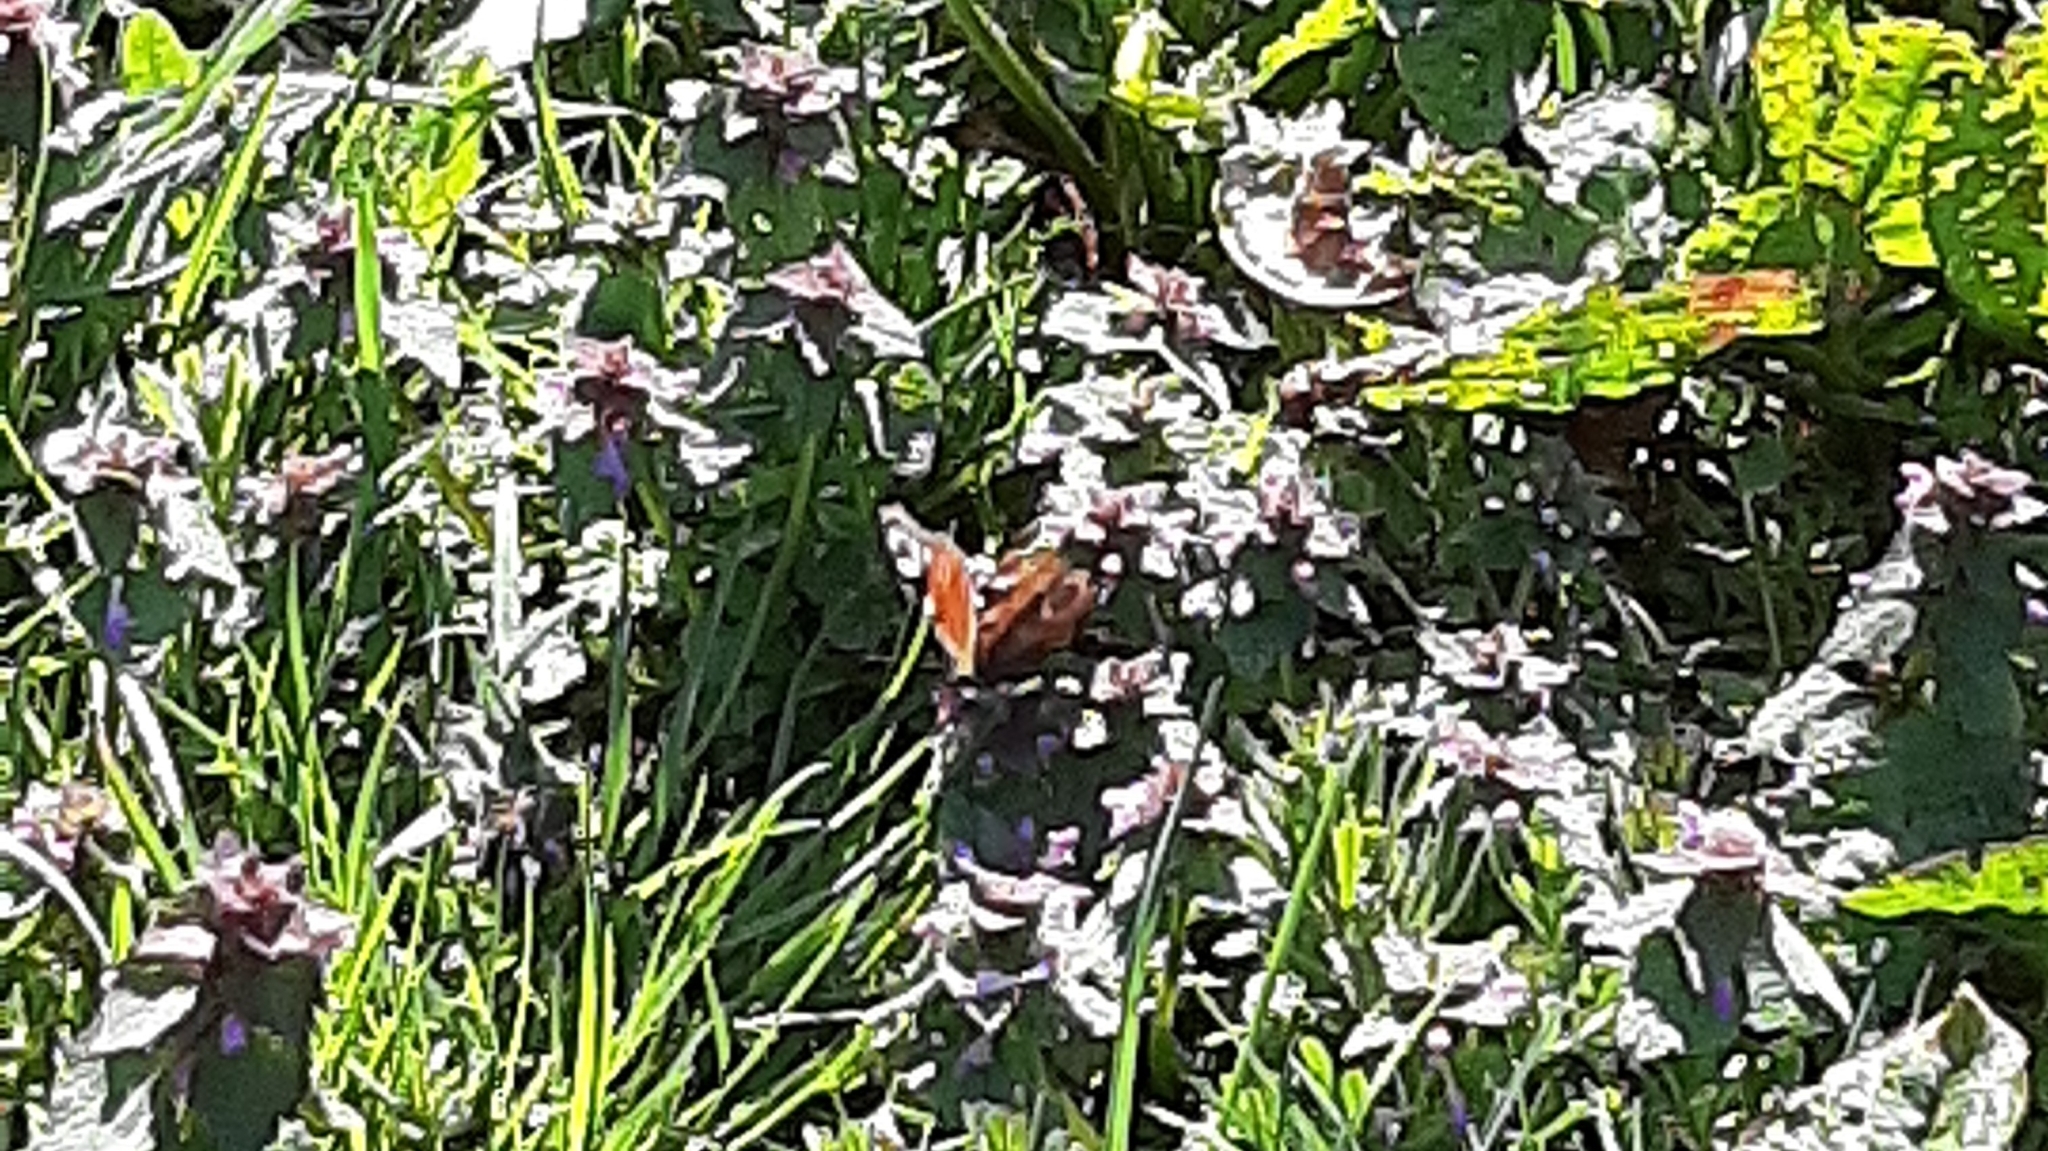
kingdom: Animalia
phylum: Arthropoda
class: Insecta
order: Lepidoptera
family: Nymphalidae
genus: Aglais
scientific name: Aglais io
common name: Peacock
